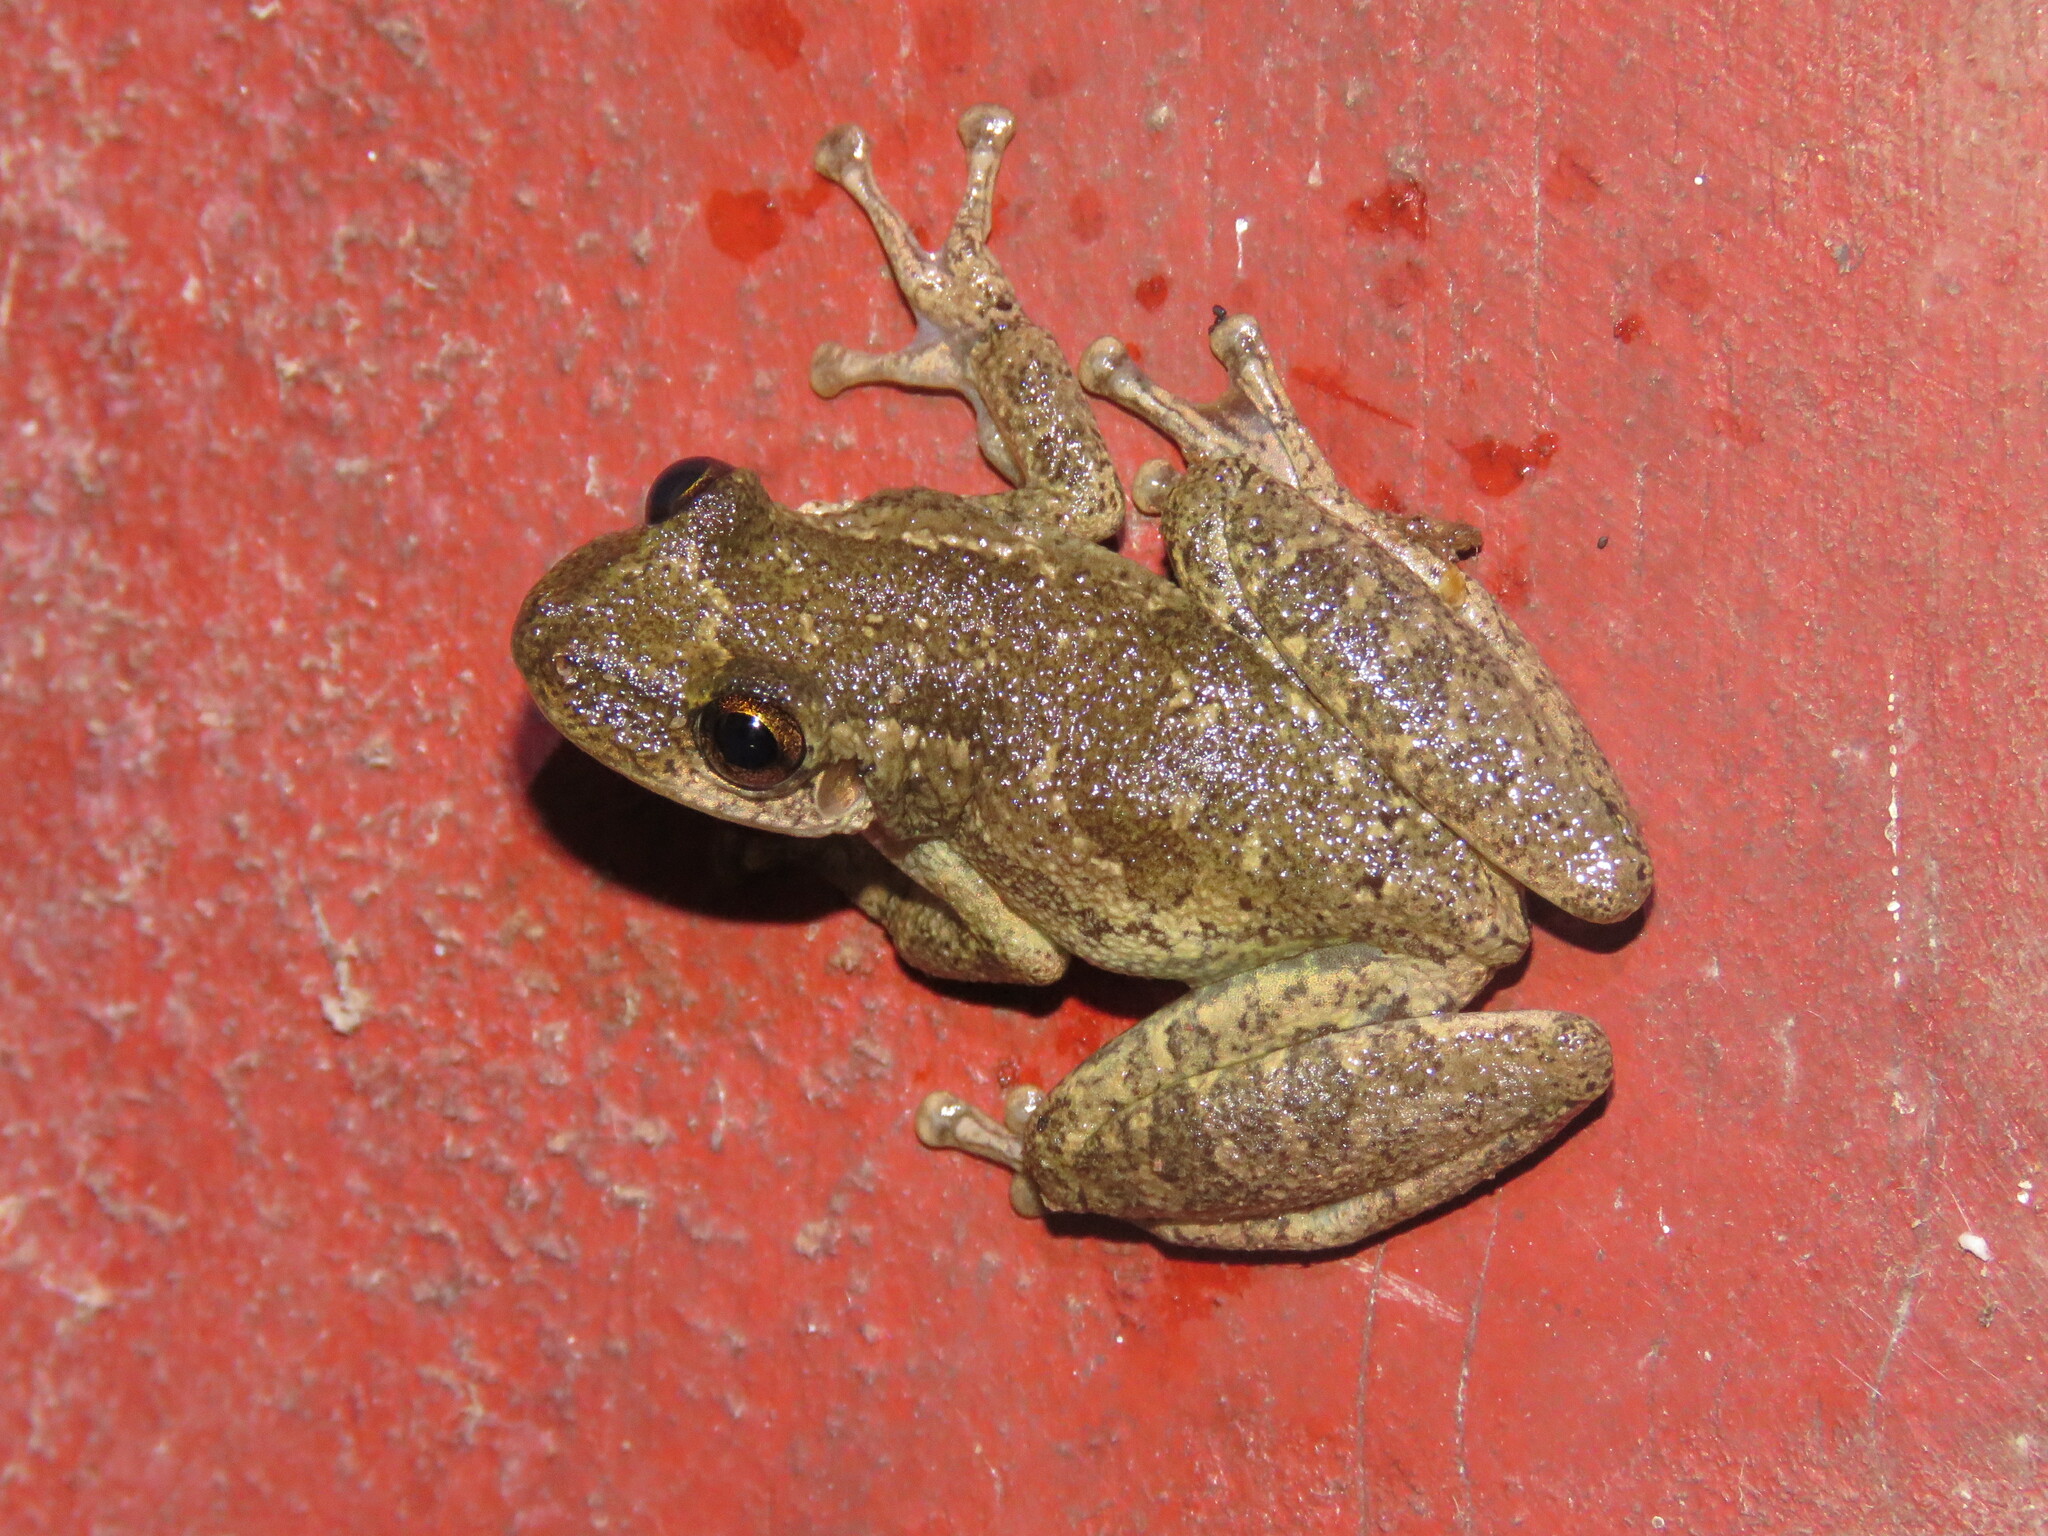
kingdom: Animalia
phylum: Chordata
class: Amphibia
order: Anura
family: Hylidae
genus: Scinax
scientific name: Scinax ruber
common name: Red snouted treefrog
